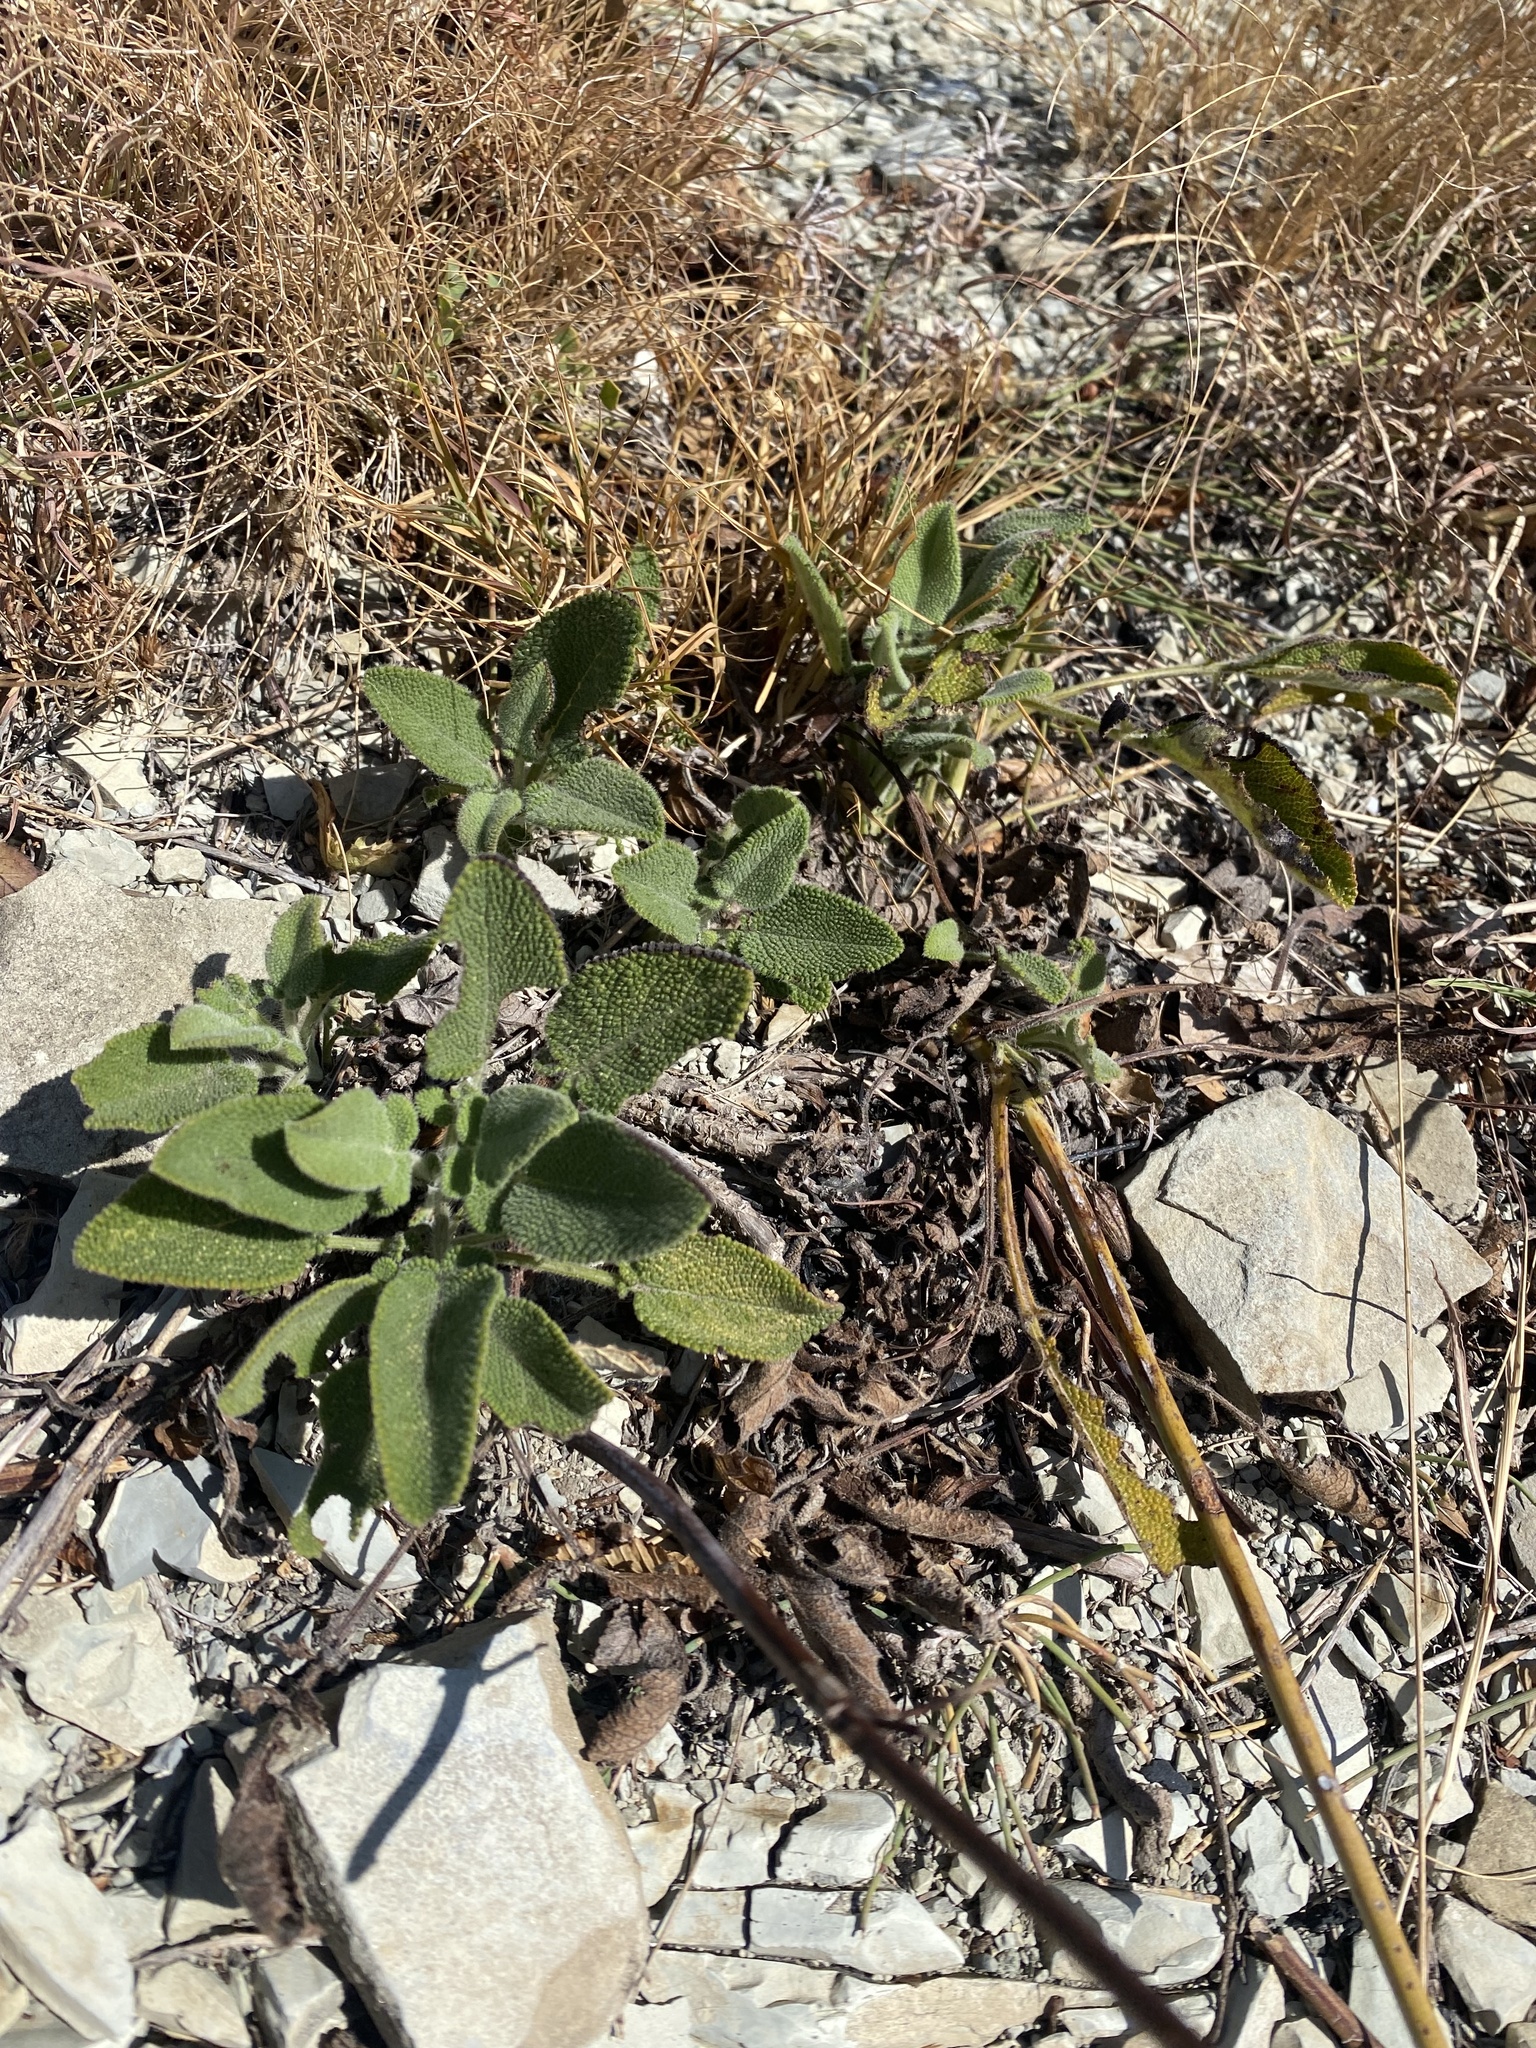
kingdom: Plantae
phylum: Tracheophyta
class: Magnoliopsida
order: Lamiales
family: Lamiaceae
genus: Salvia
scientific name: Salvia ringens
